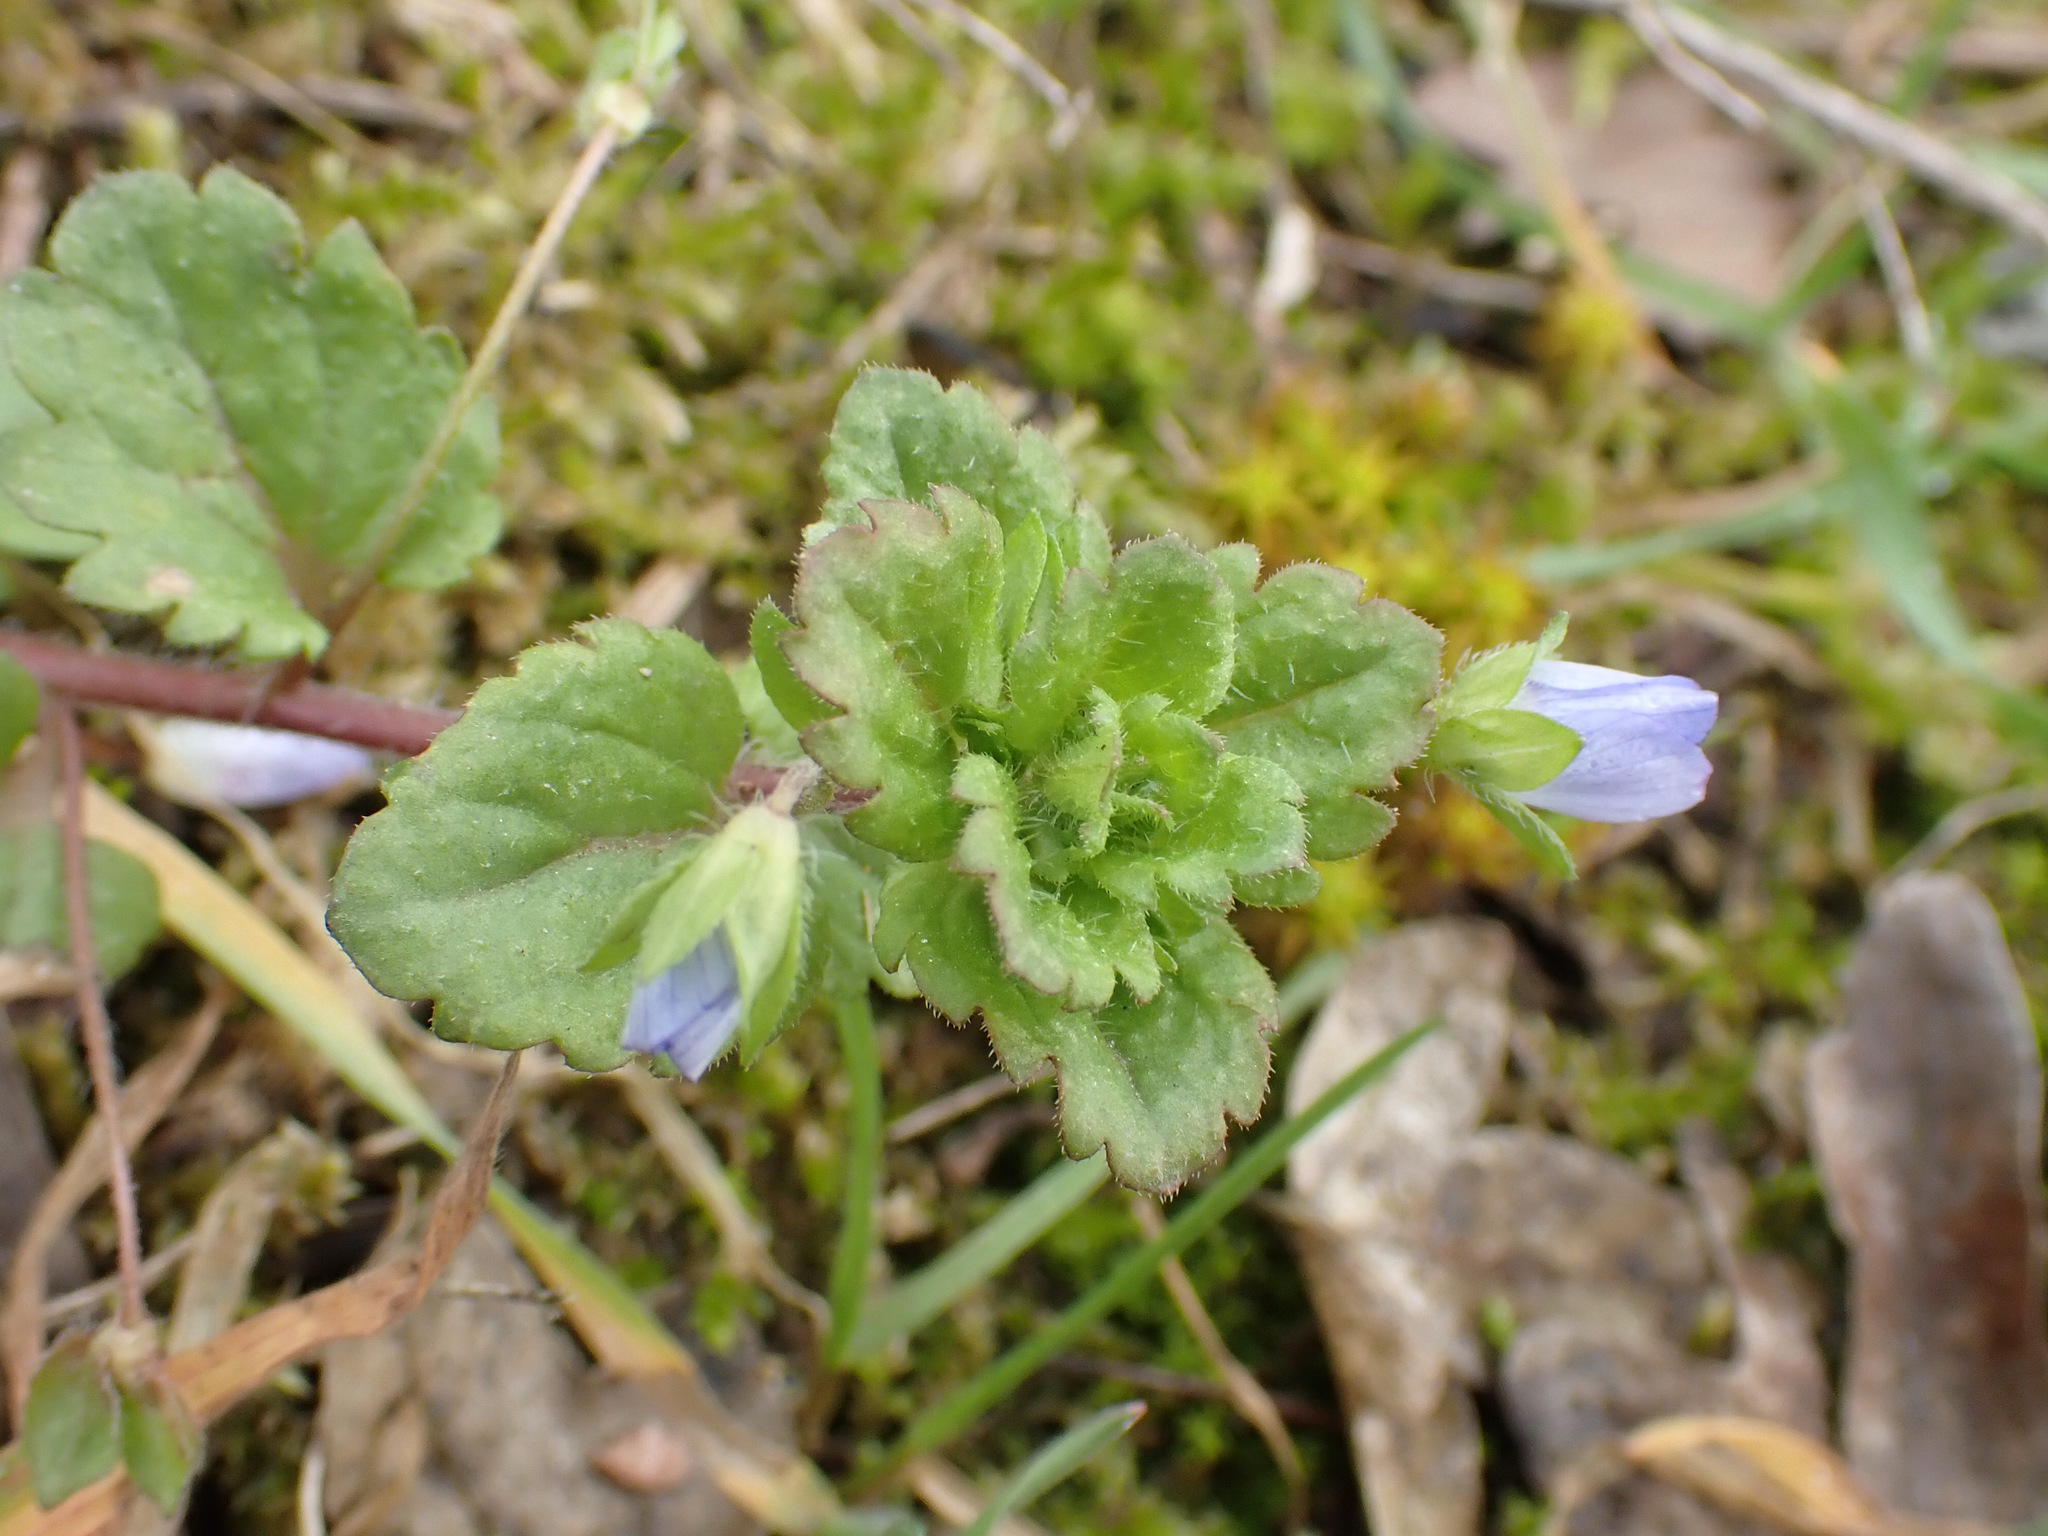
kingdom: Plantae
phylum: Tracheophyta
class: Magnoliopsida
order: Lamiales
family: Plantaginaceae
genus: Veronica
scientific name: Veronica persica
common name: Common field-speedwell
